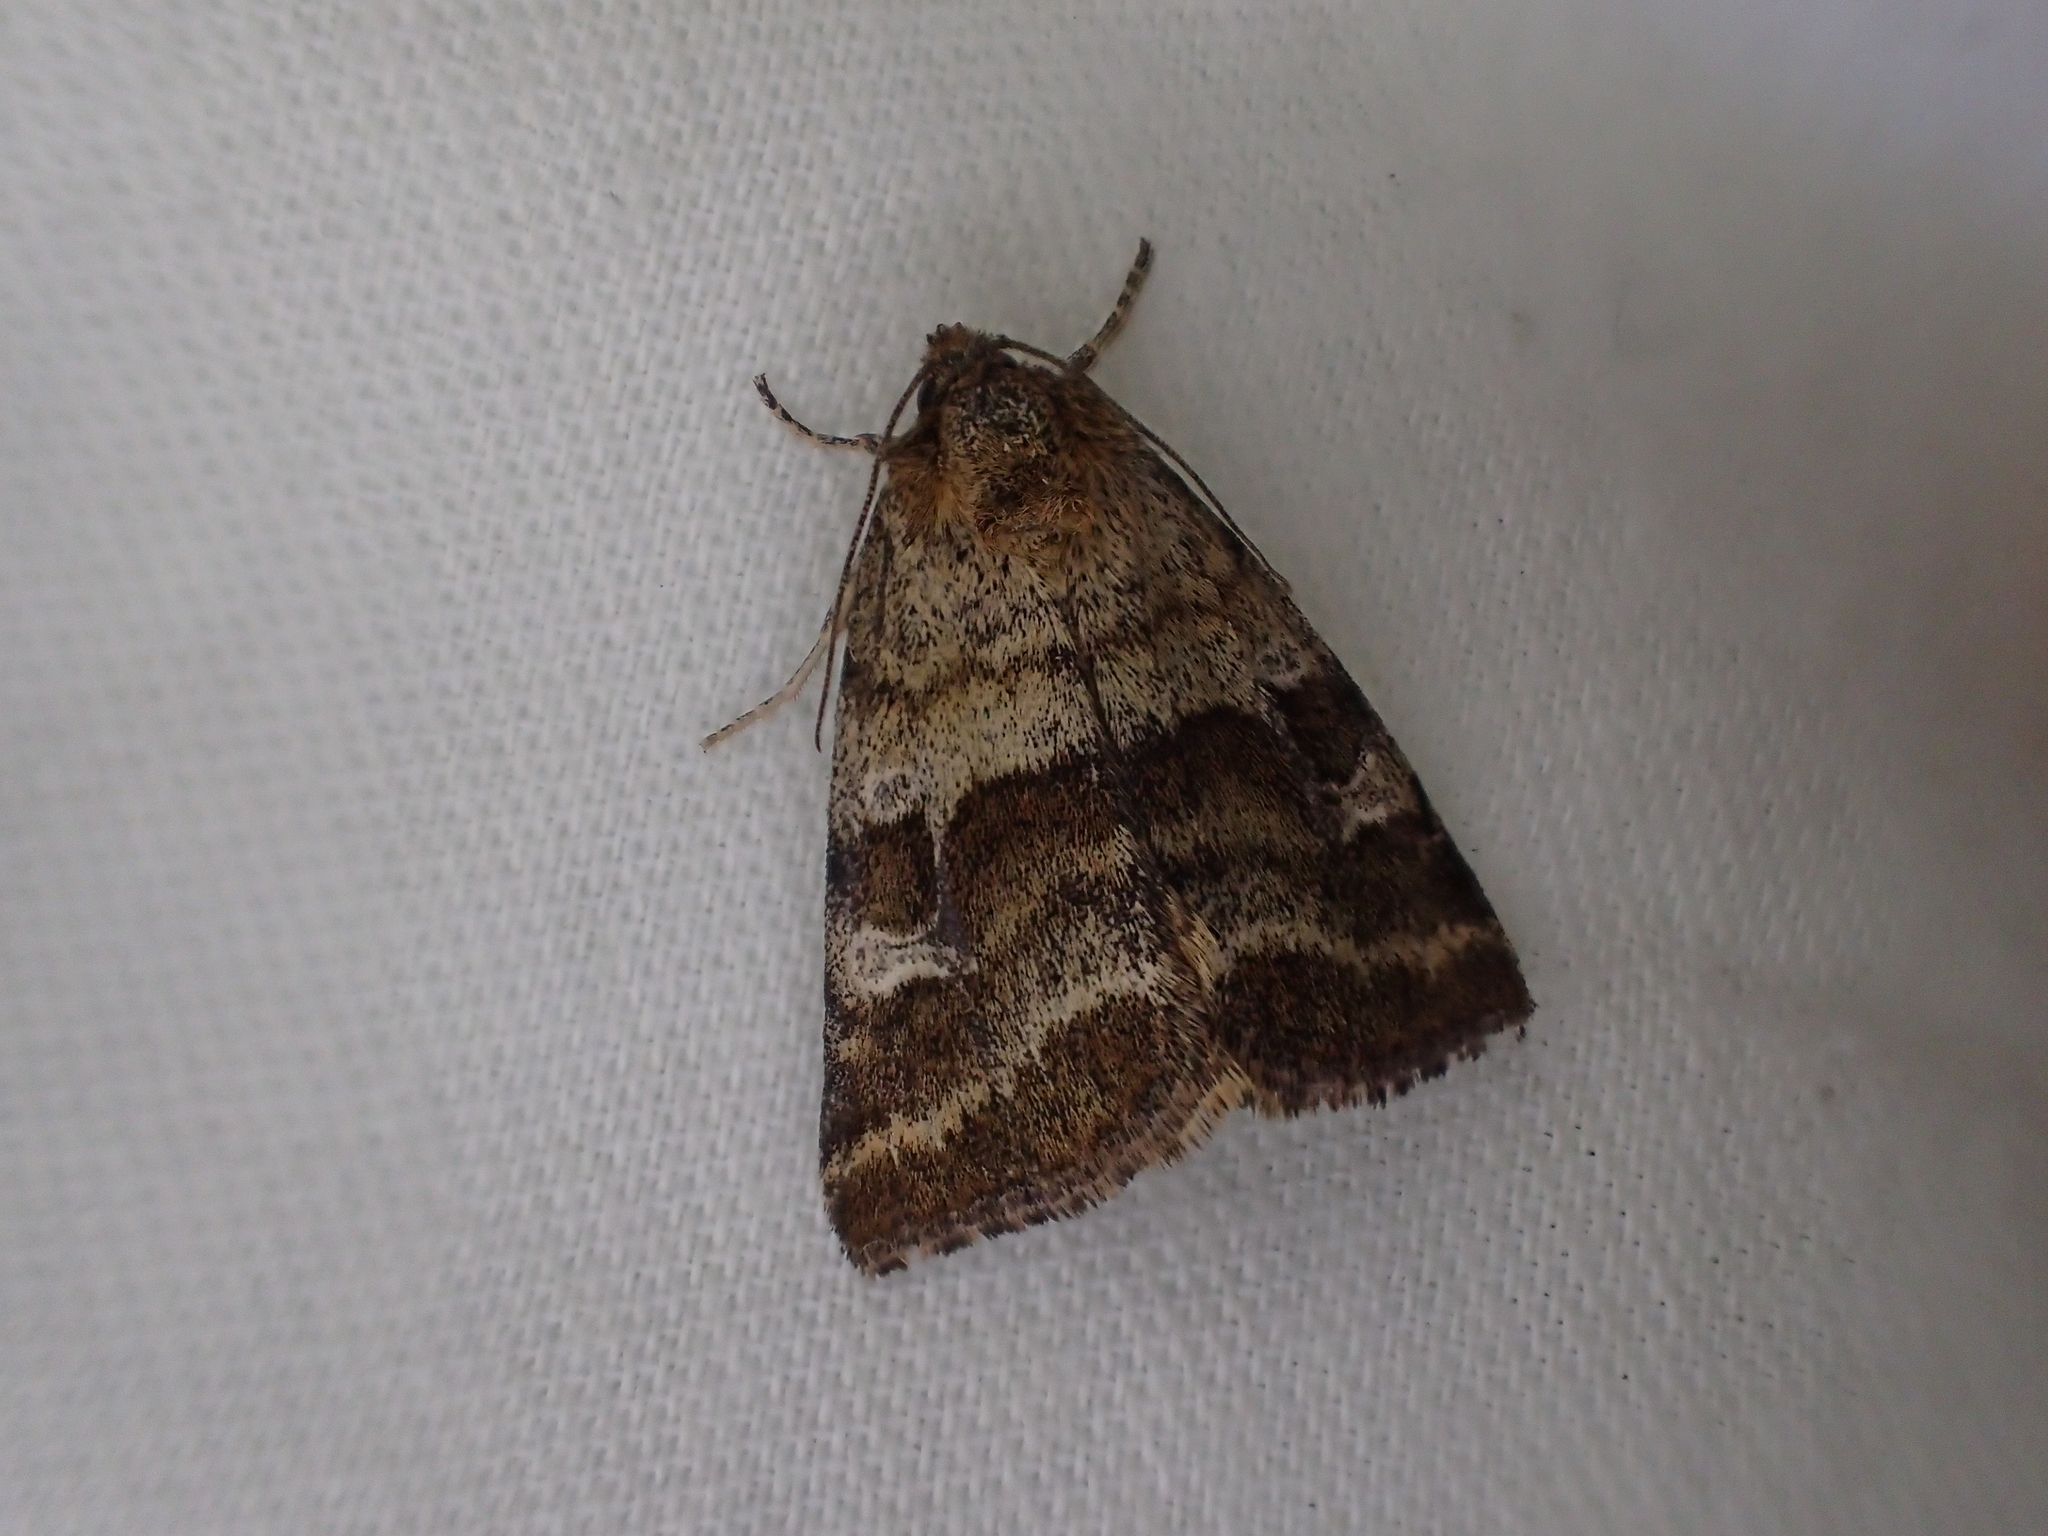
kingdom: Animalia
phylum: Arthropoda
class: Insecta
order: Lepidoptera
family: Noctuidae
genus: Synthymia
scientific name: Synthymia fixa
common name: Goldwing
